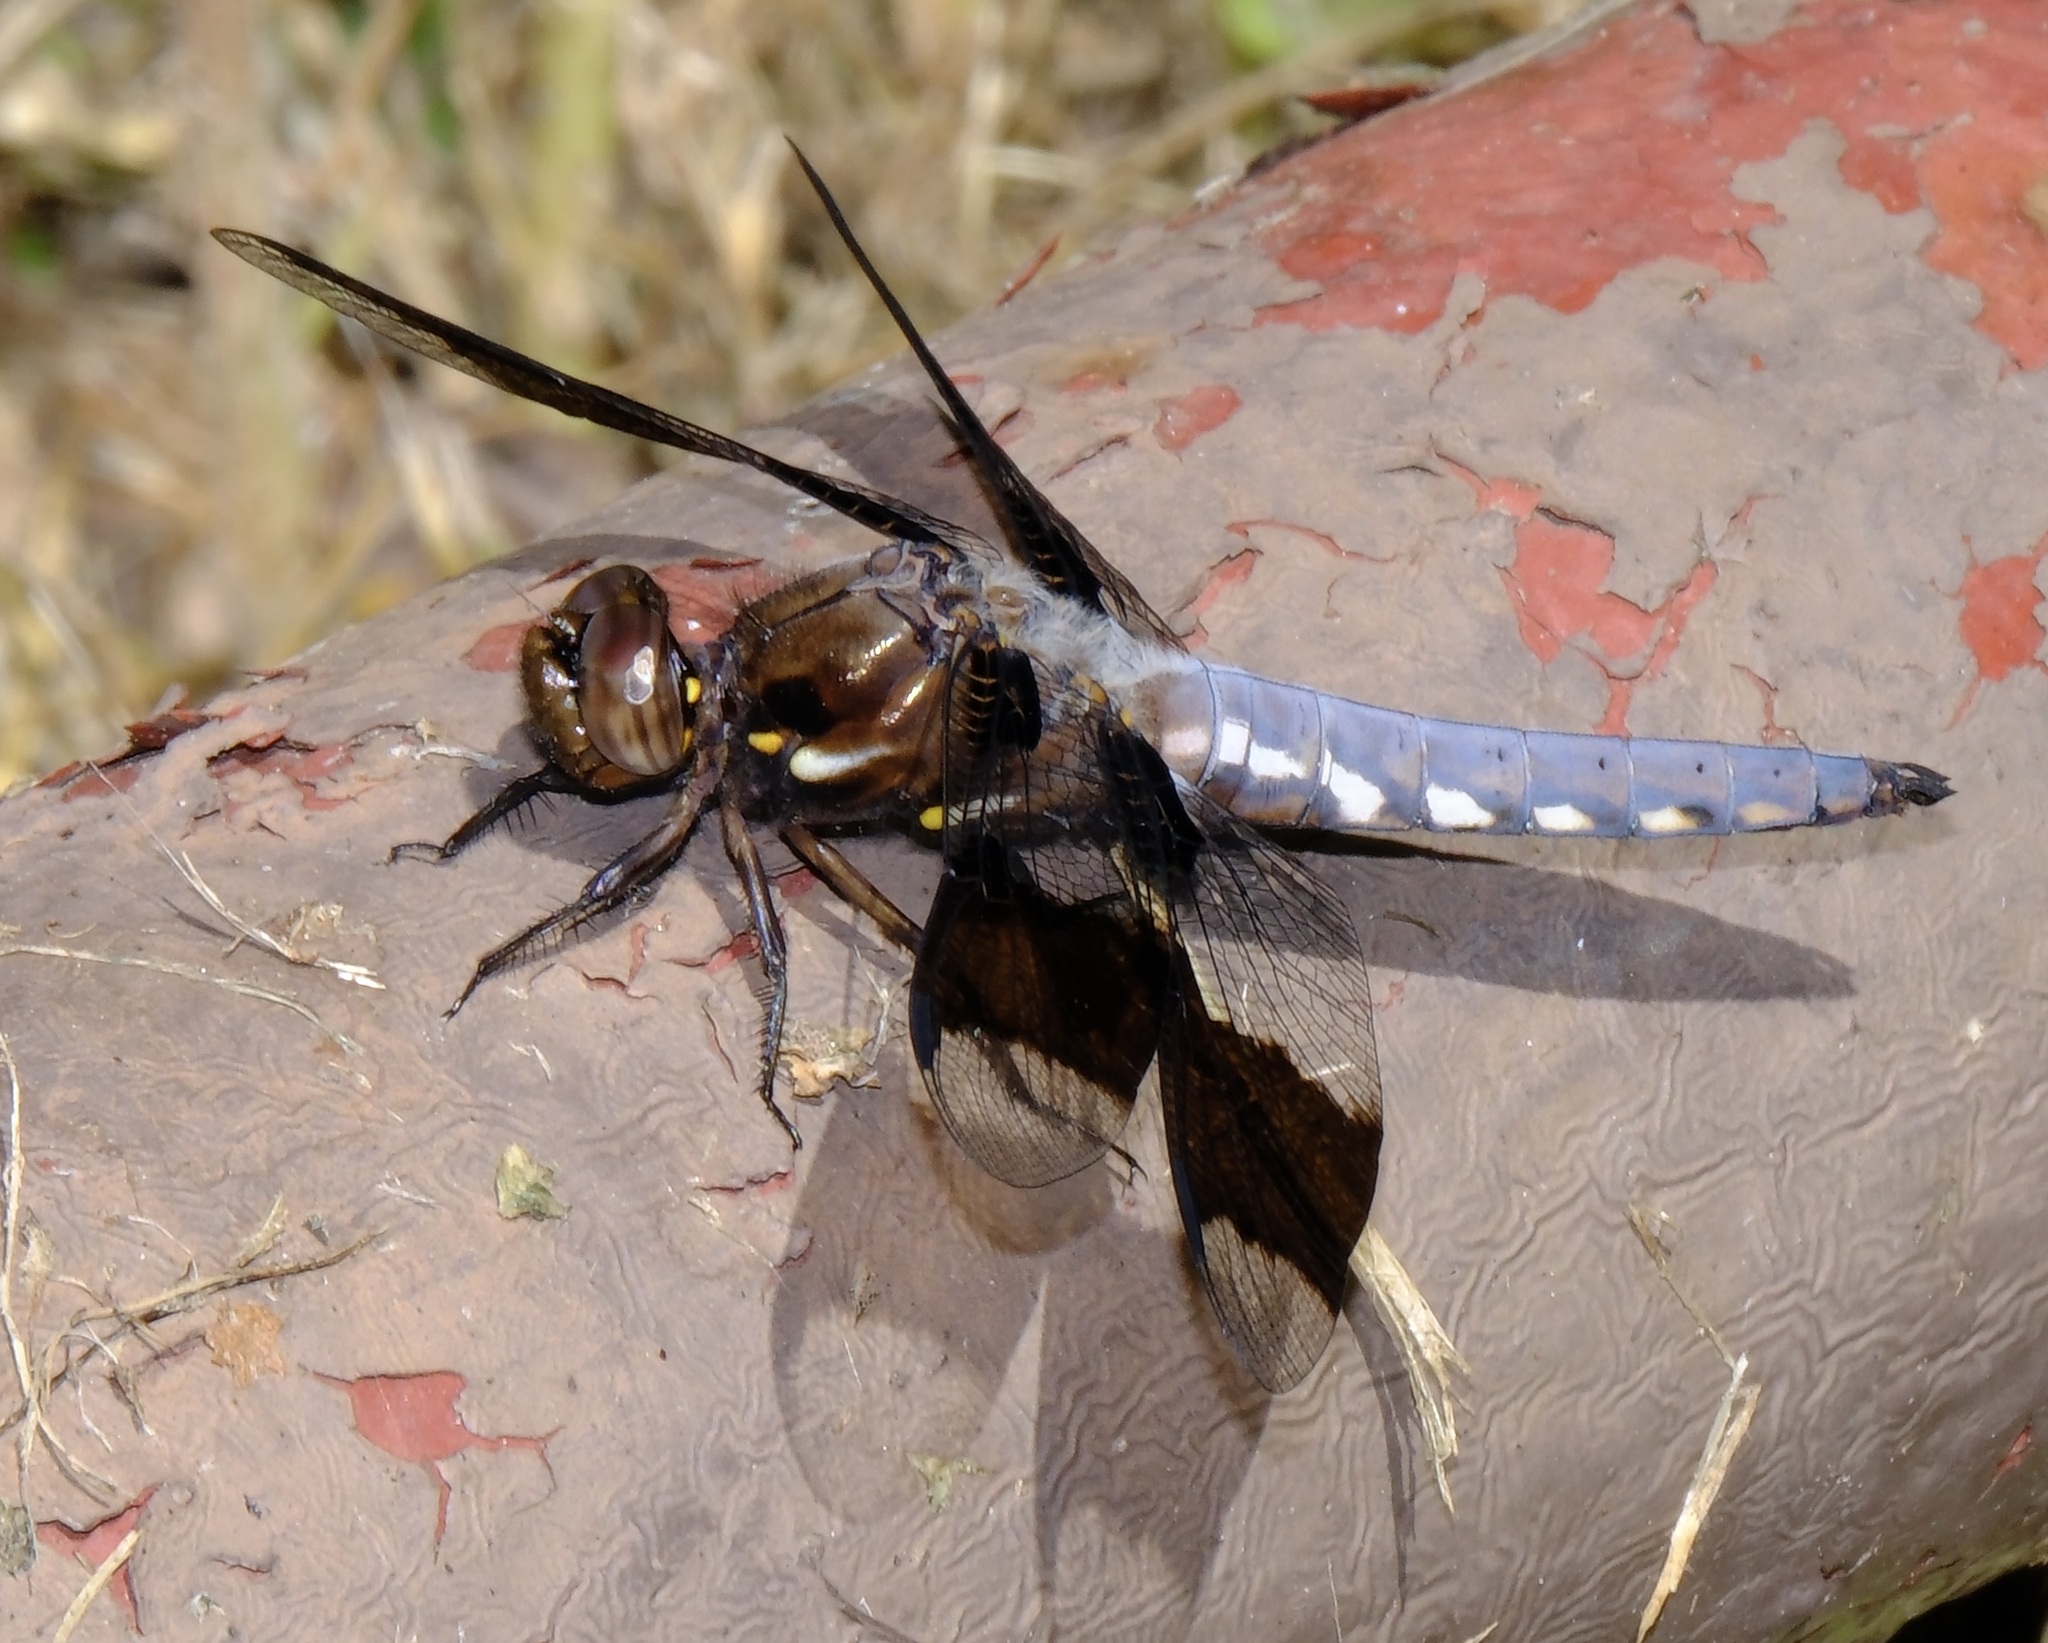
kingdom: Animalia
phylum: Arthropoda
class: Insecta
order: Odonata
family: Libellulidae
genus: Plathemis
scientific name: Plathemis lydia
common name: Common whitetail
